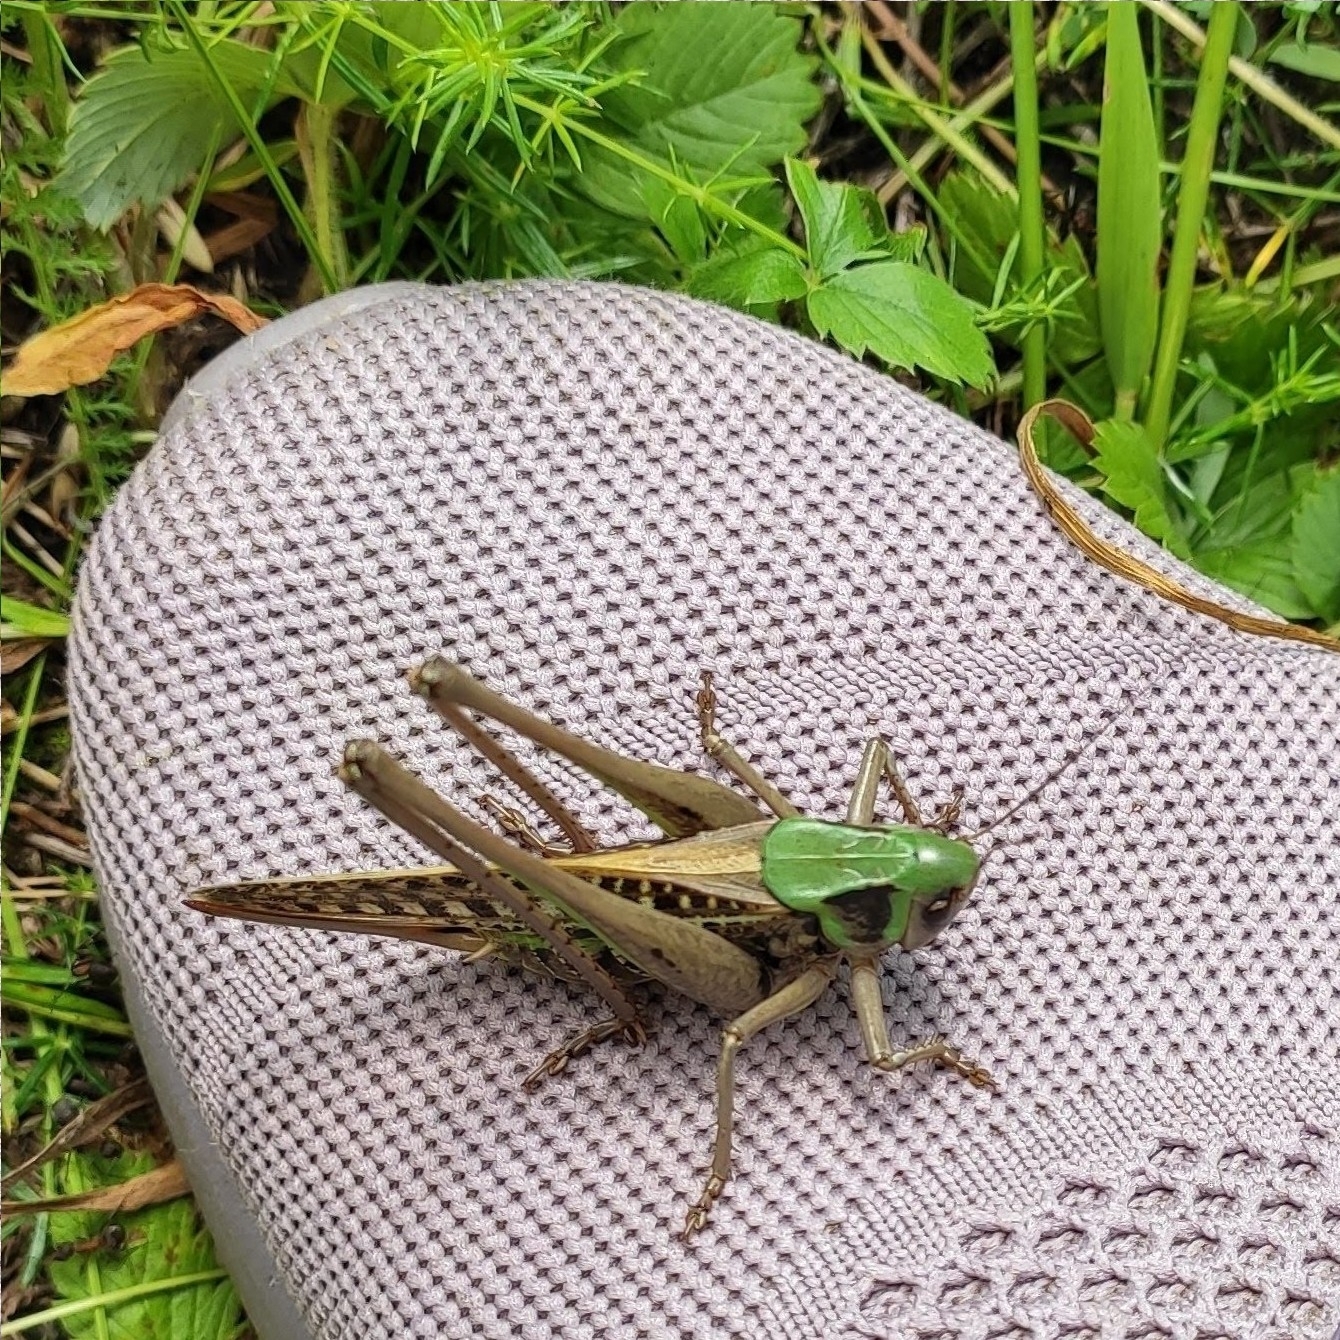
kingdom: Animalia
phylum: Arthropoda
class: Insecta
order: Orthoptera
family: Tettigoniidae
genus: Decticus
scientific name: Decticus verrucivorus
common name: Wart-biter
